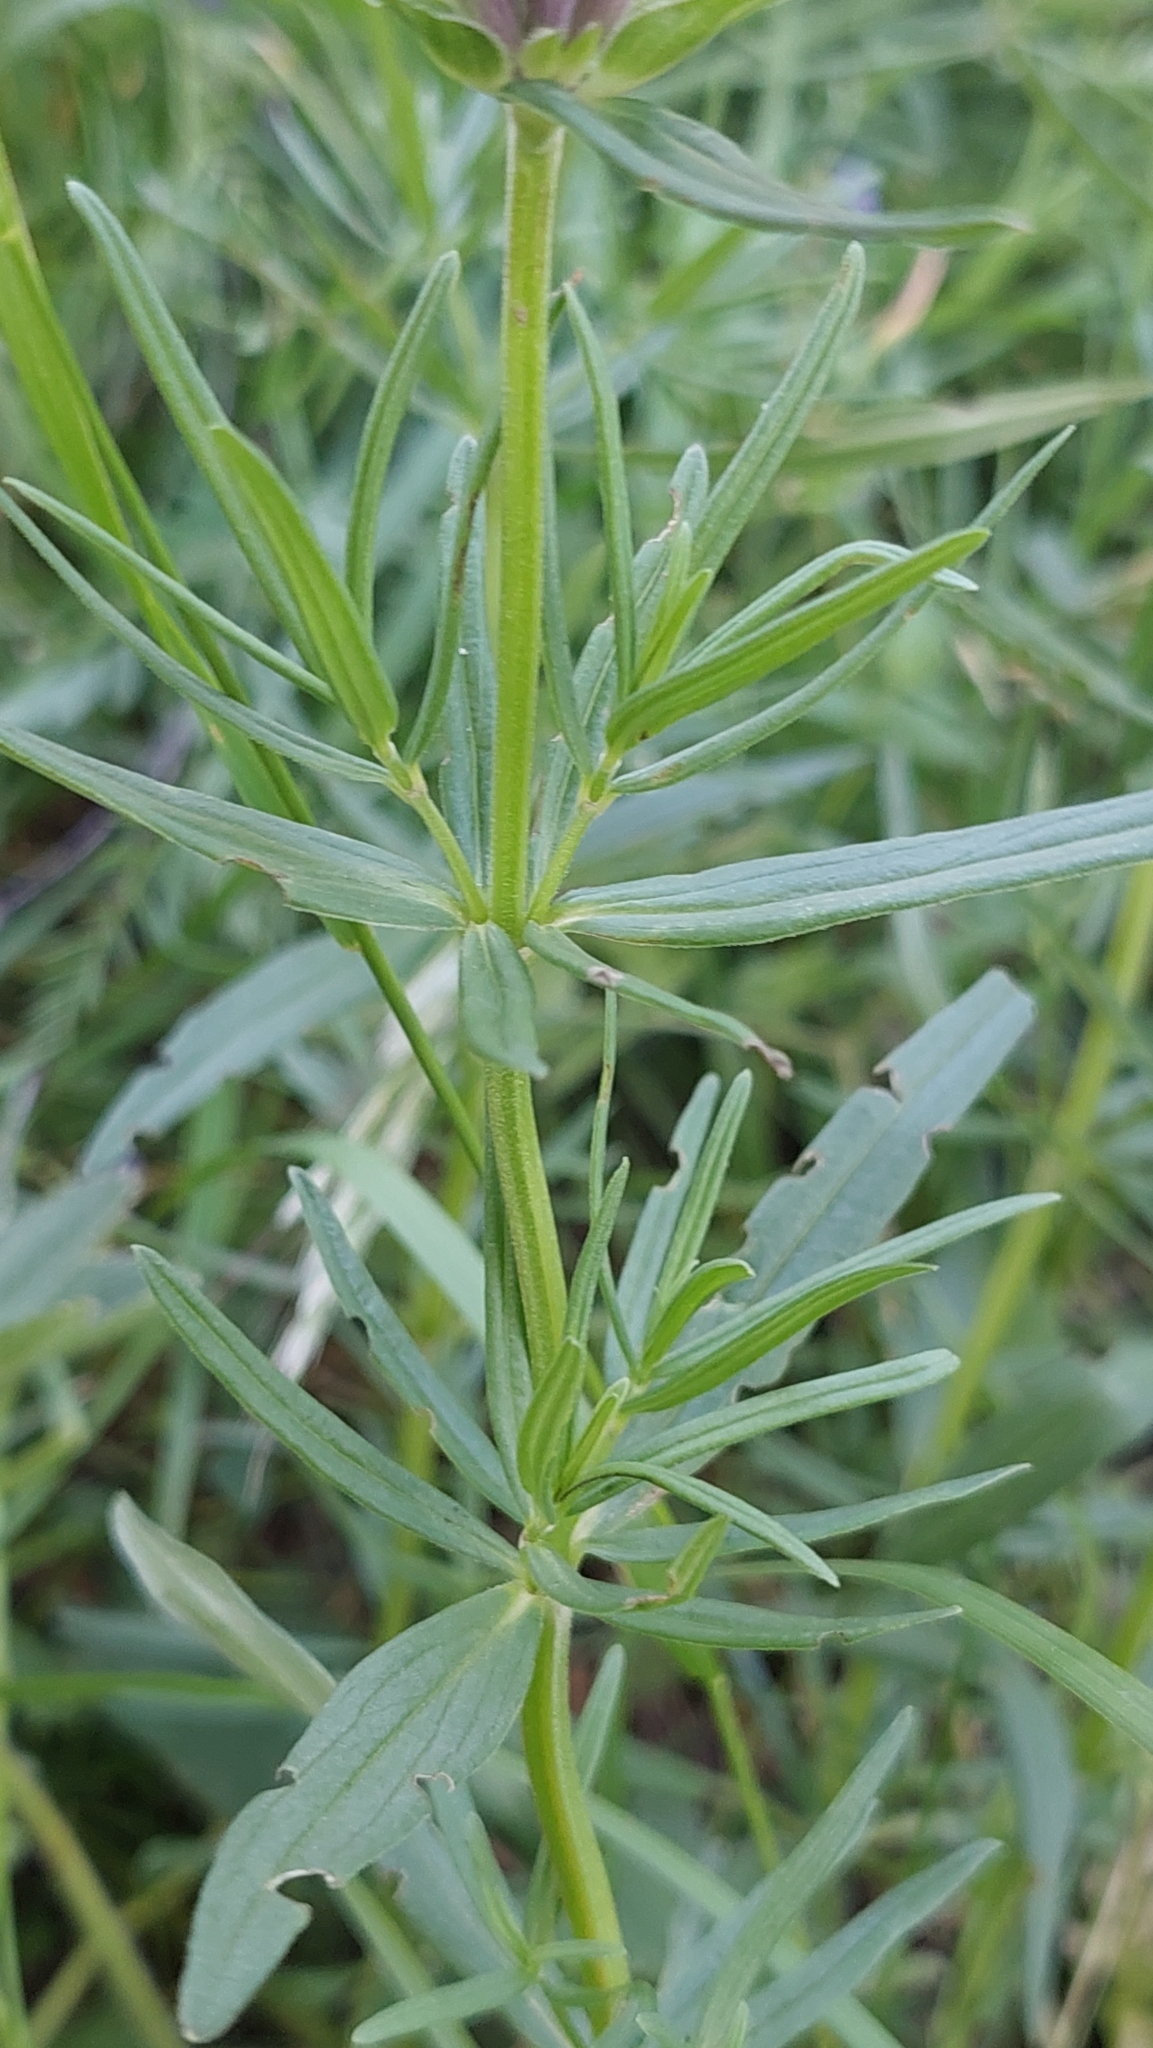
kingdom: Plantae
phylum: Tracheophyta
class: Magnoliopsida
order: Lamiales
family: Lamiaceae
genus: Dracocephalum
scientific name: Dracocephalum ruyschiana
